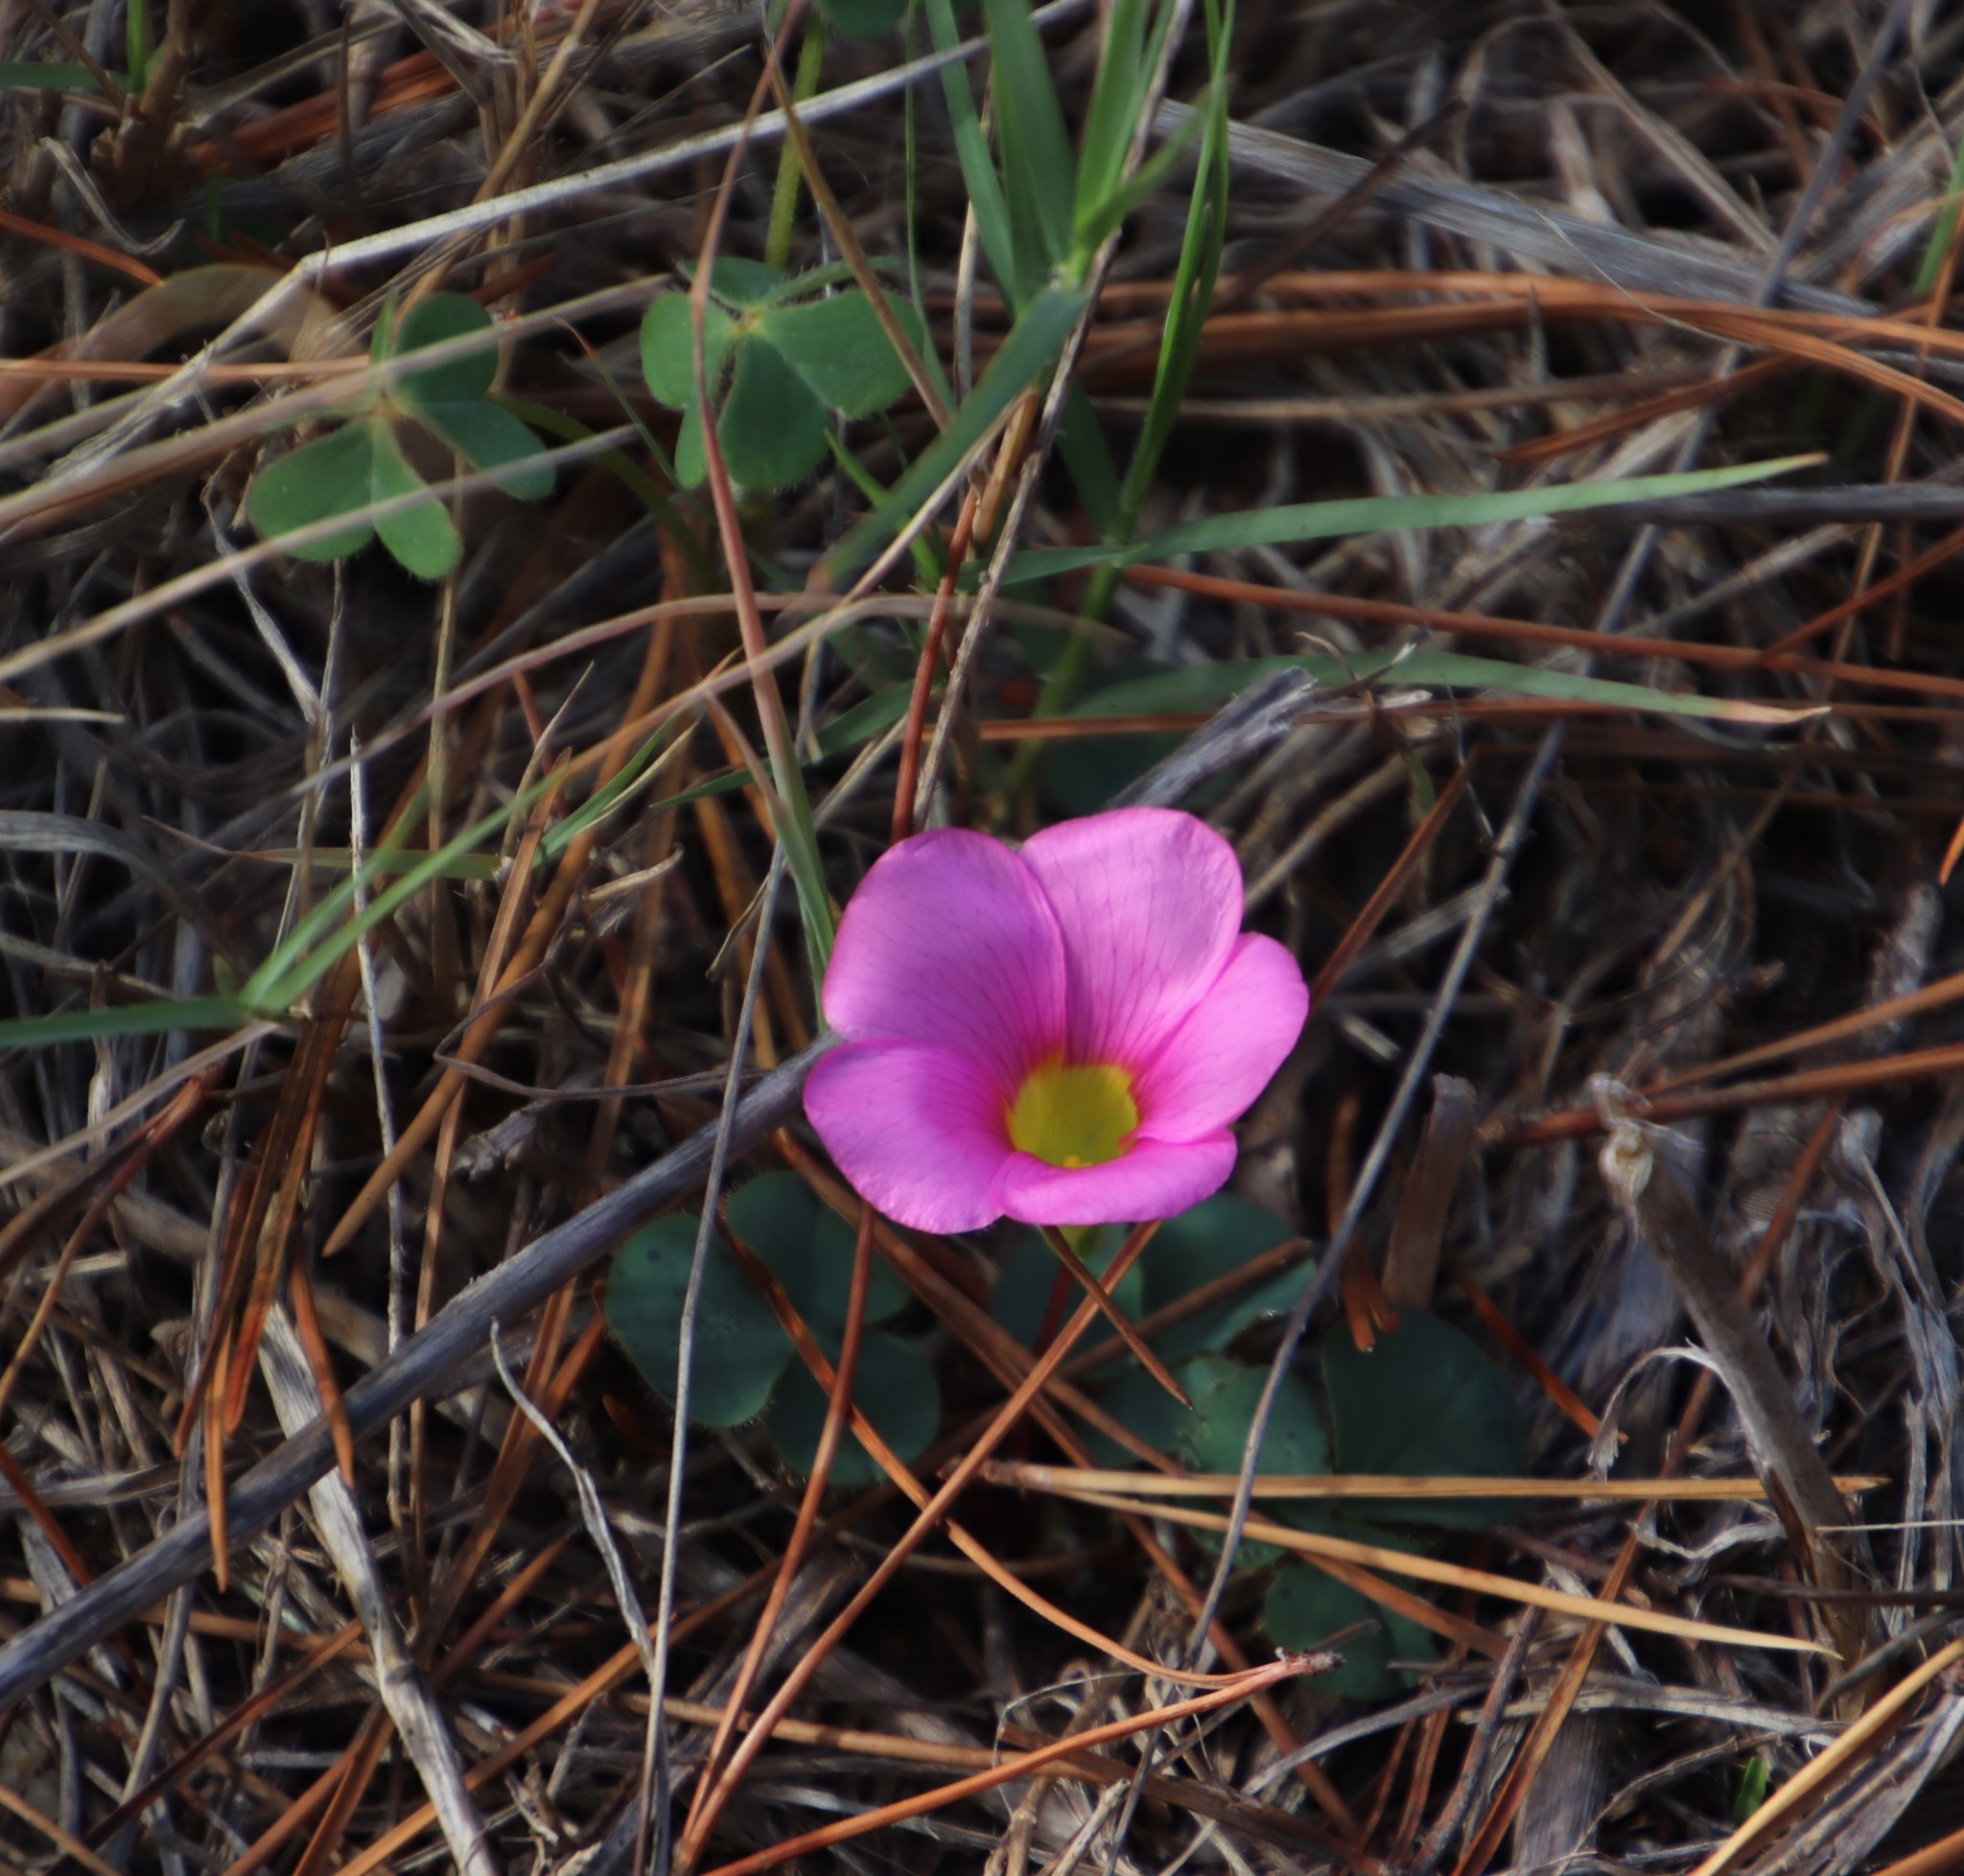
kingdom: Plantae
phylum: Tracheophyta
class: Magnoliopsida
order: Oxalidales
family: Oxalidaceae
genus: Oxalis
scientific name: Oxalis purpurea
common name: Purple woodsorrel
